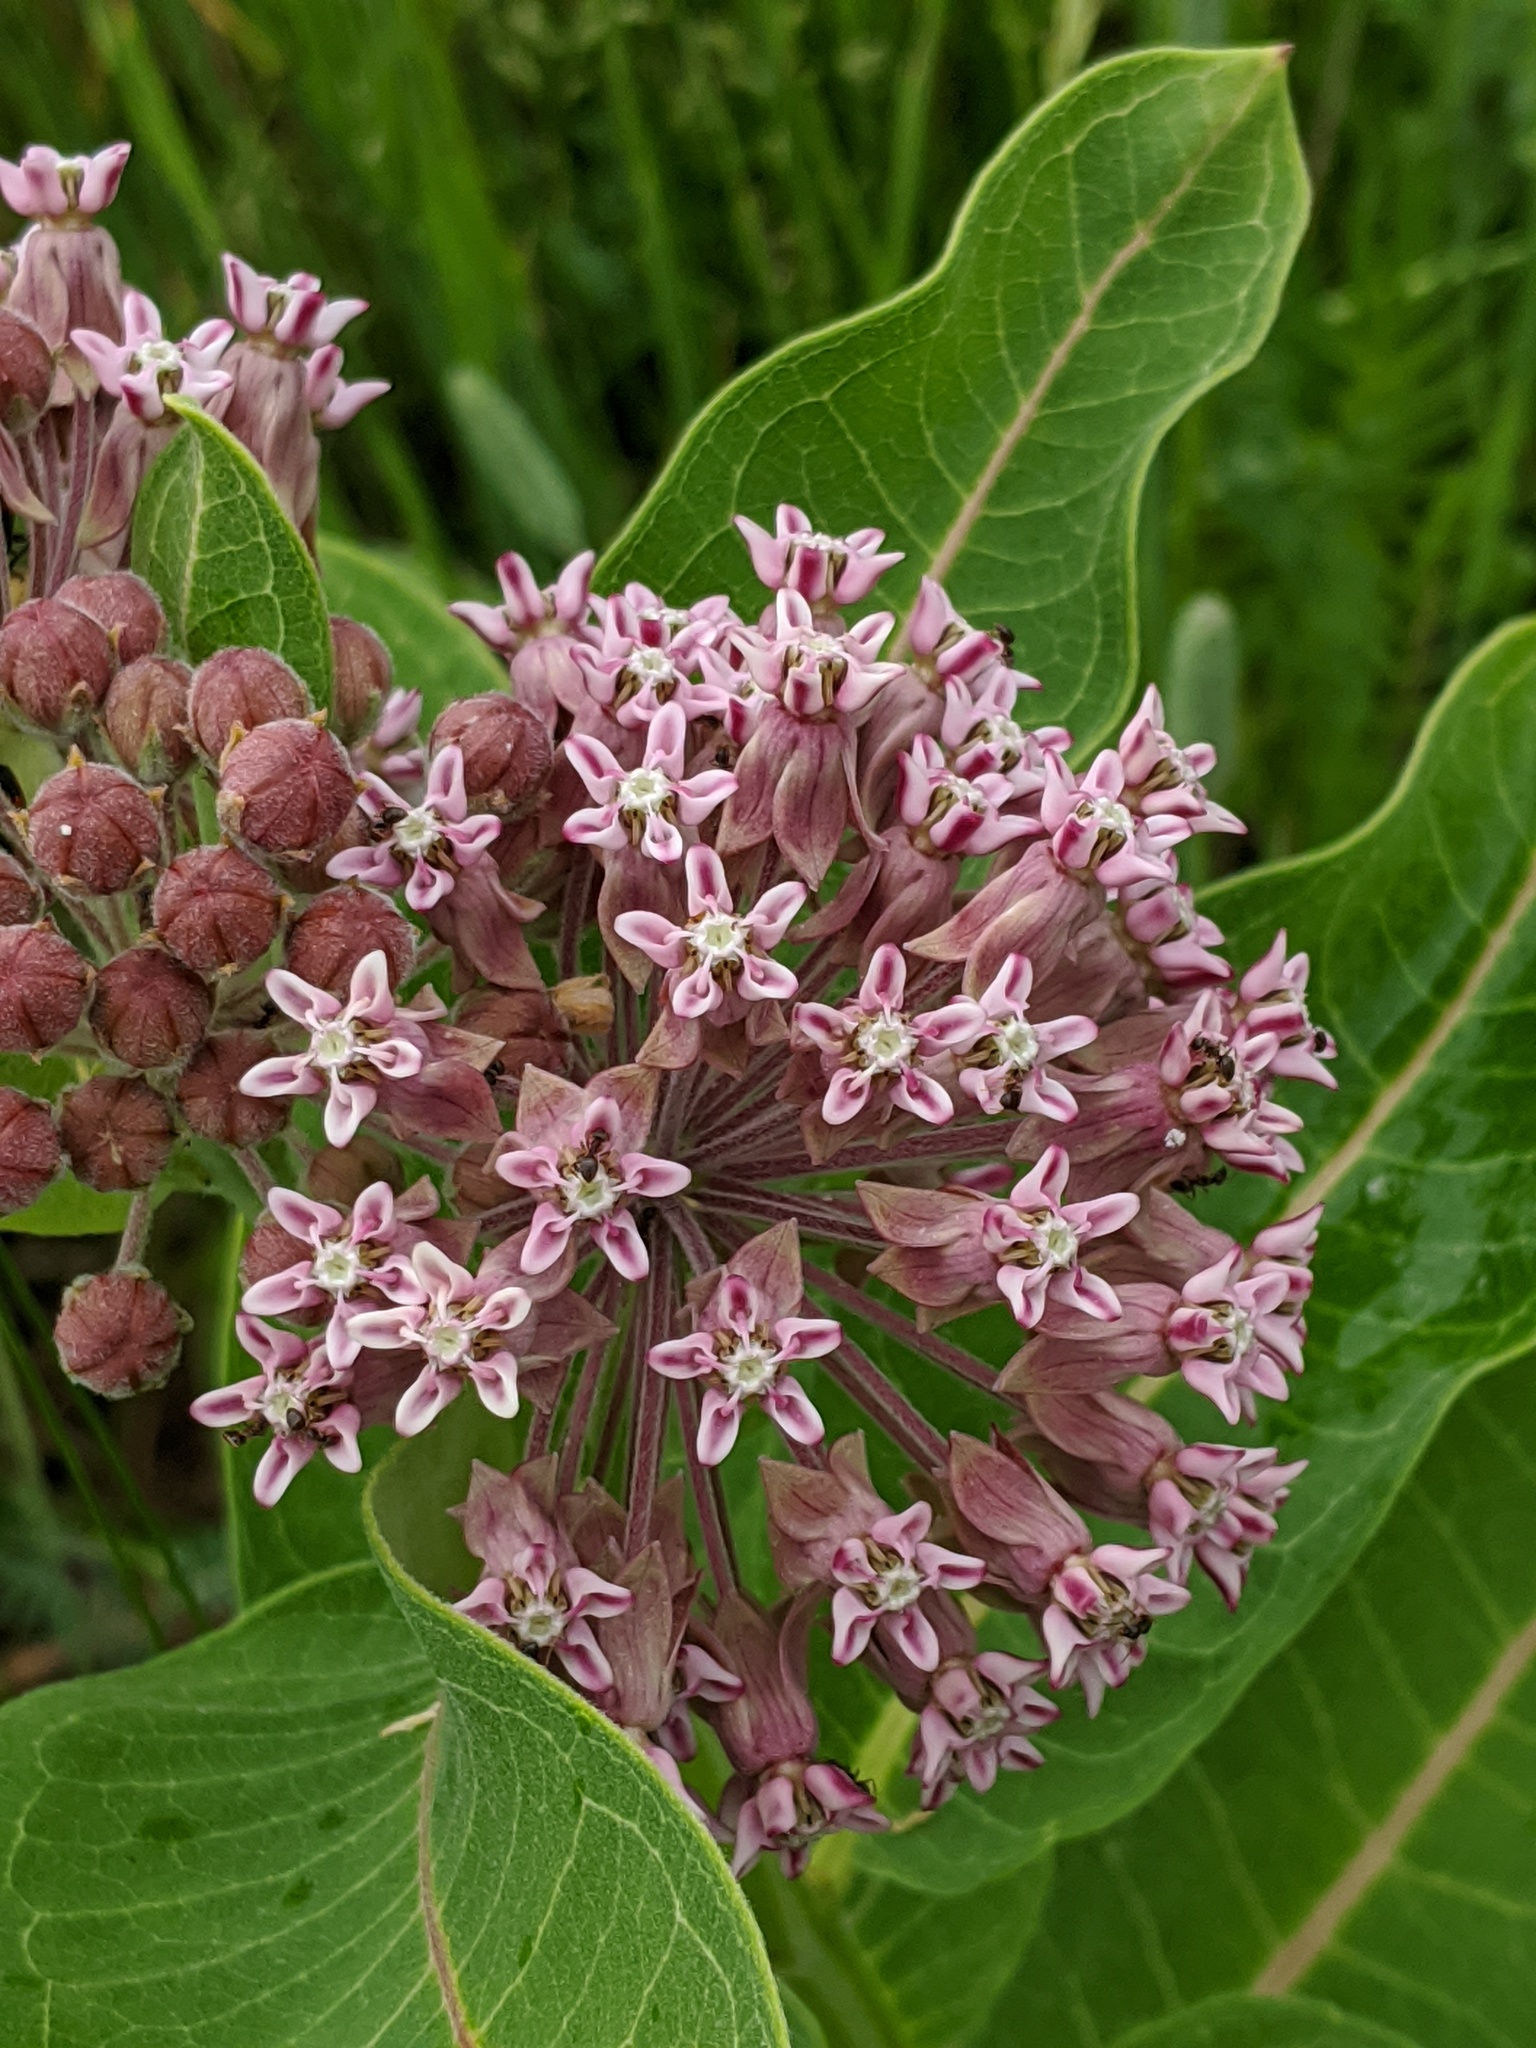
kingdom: Plantae
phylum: Tracheophyta
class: Magnoliopsida
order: Gentianales
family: Apocynaceae
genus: Asclepias
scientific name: Asclepias syriaca
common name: Common milkweed
